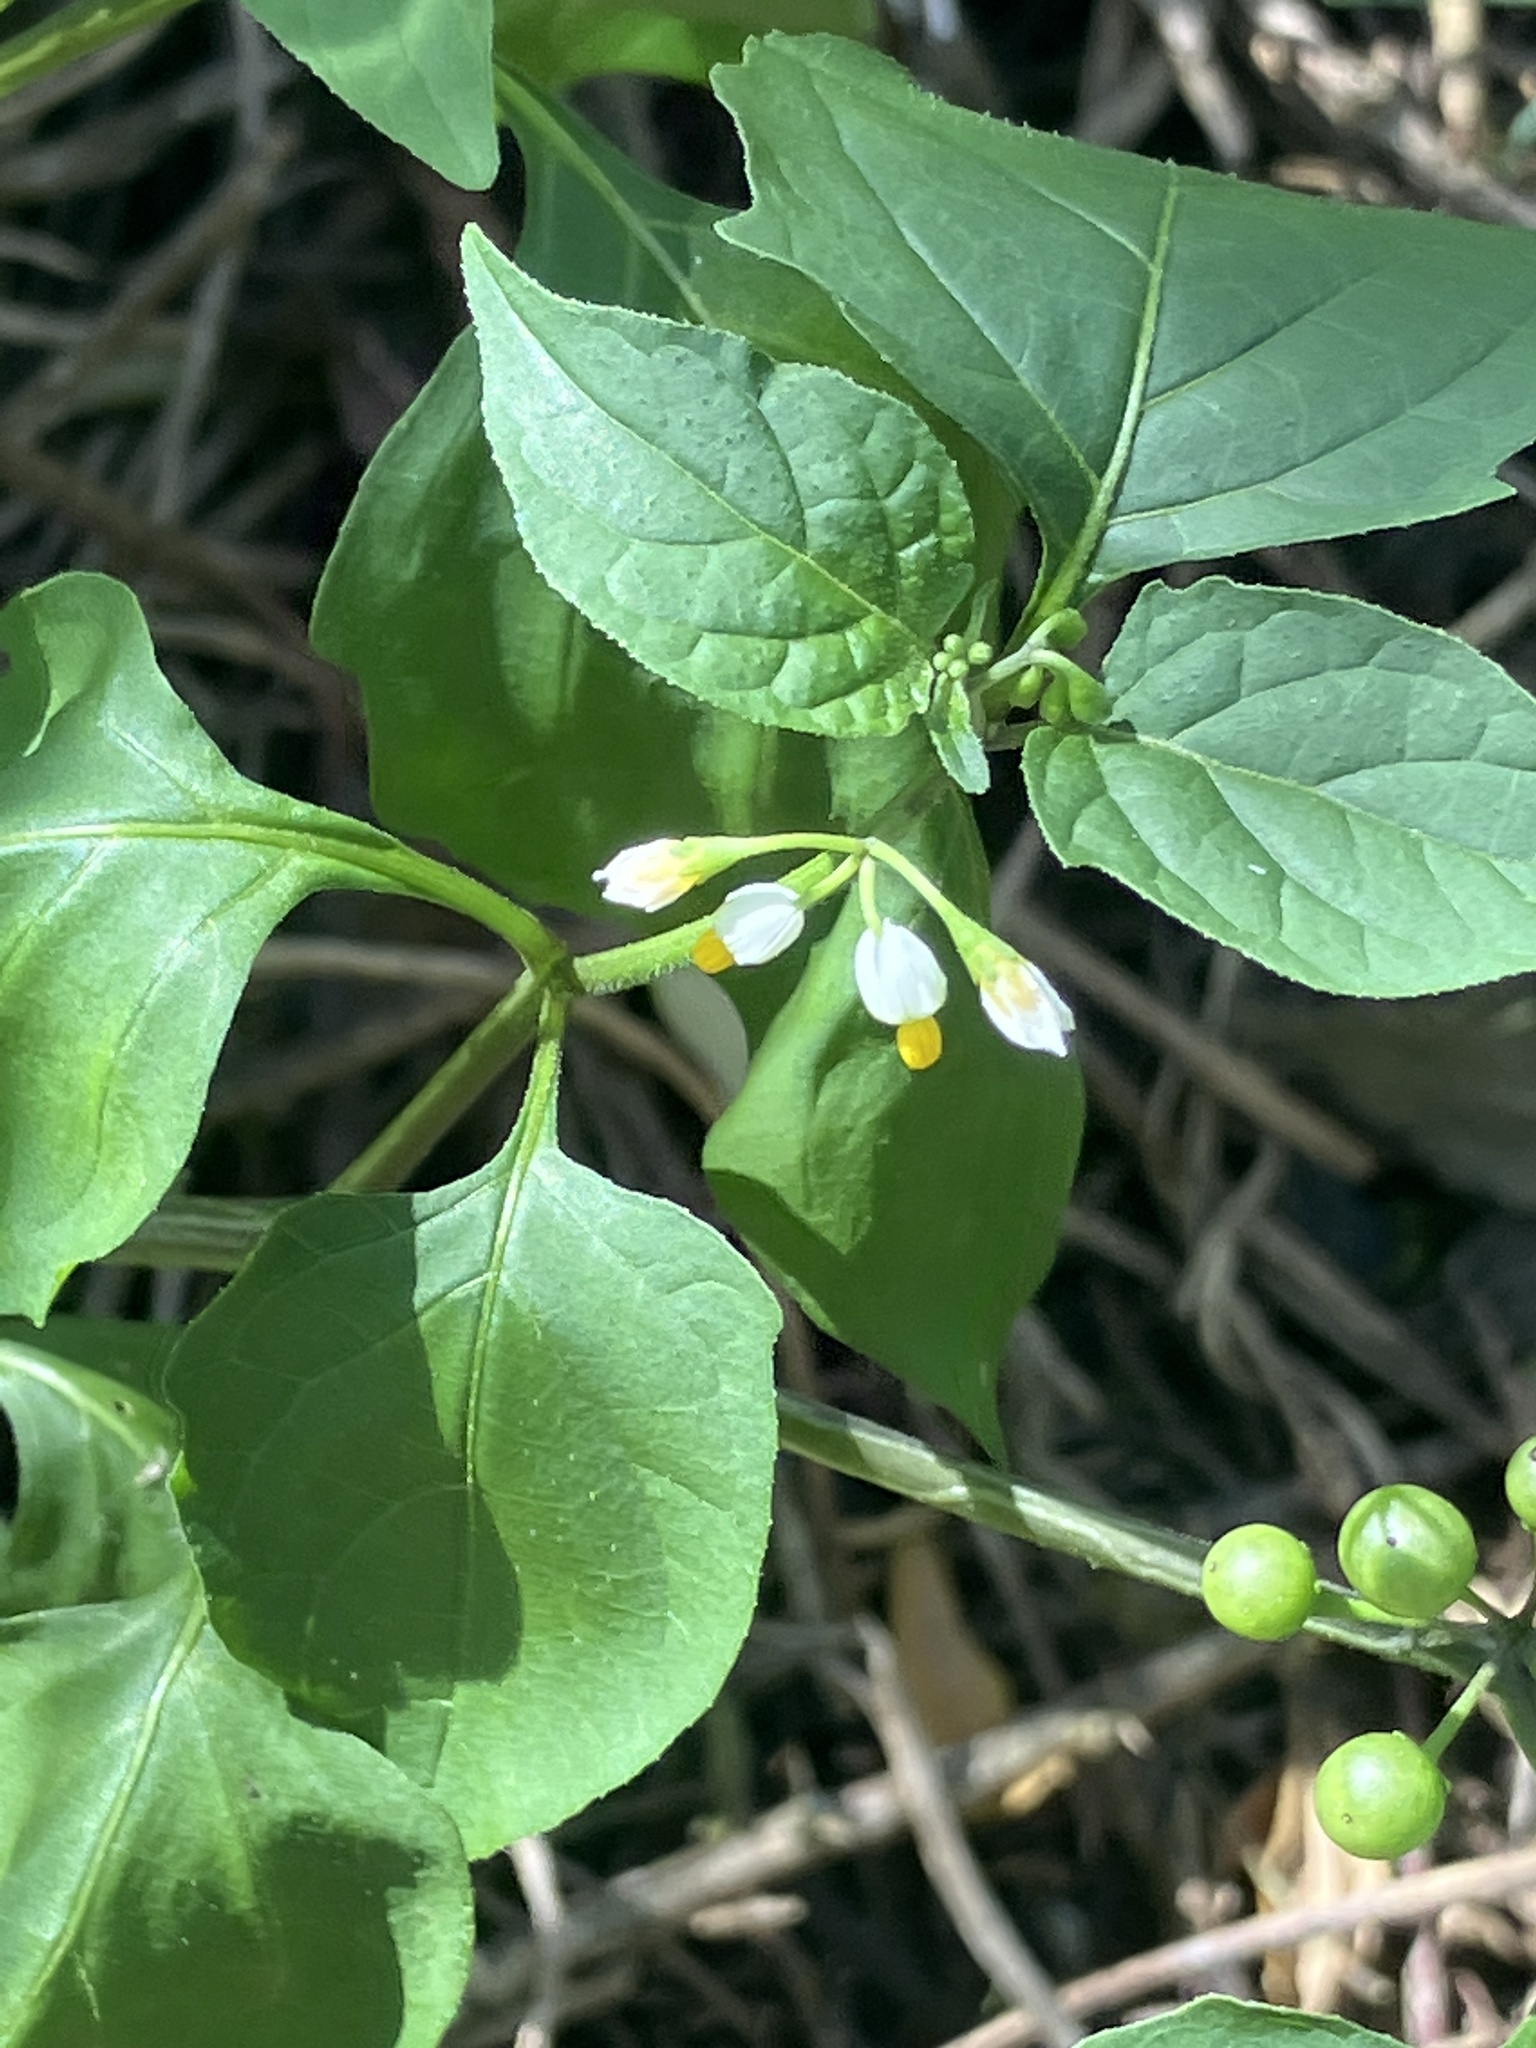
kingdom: Plantae
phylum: Tracheophyta
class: Magnoliopsida
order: Solanales
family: Solanaceae
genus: Solanum
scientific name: Solanum americanum
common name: American black nightshade
